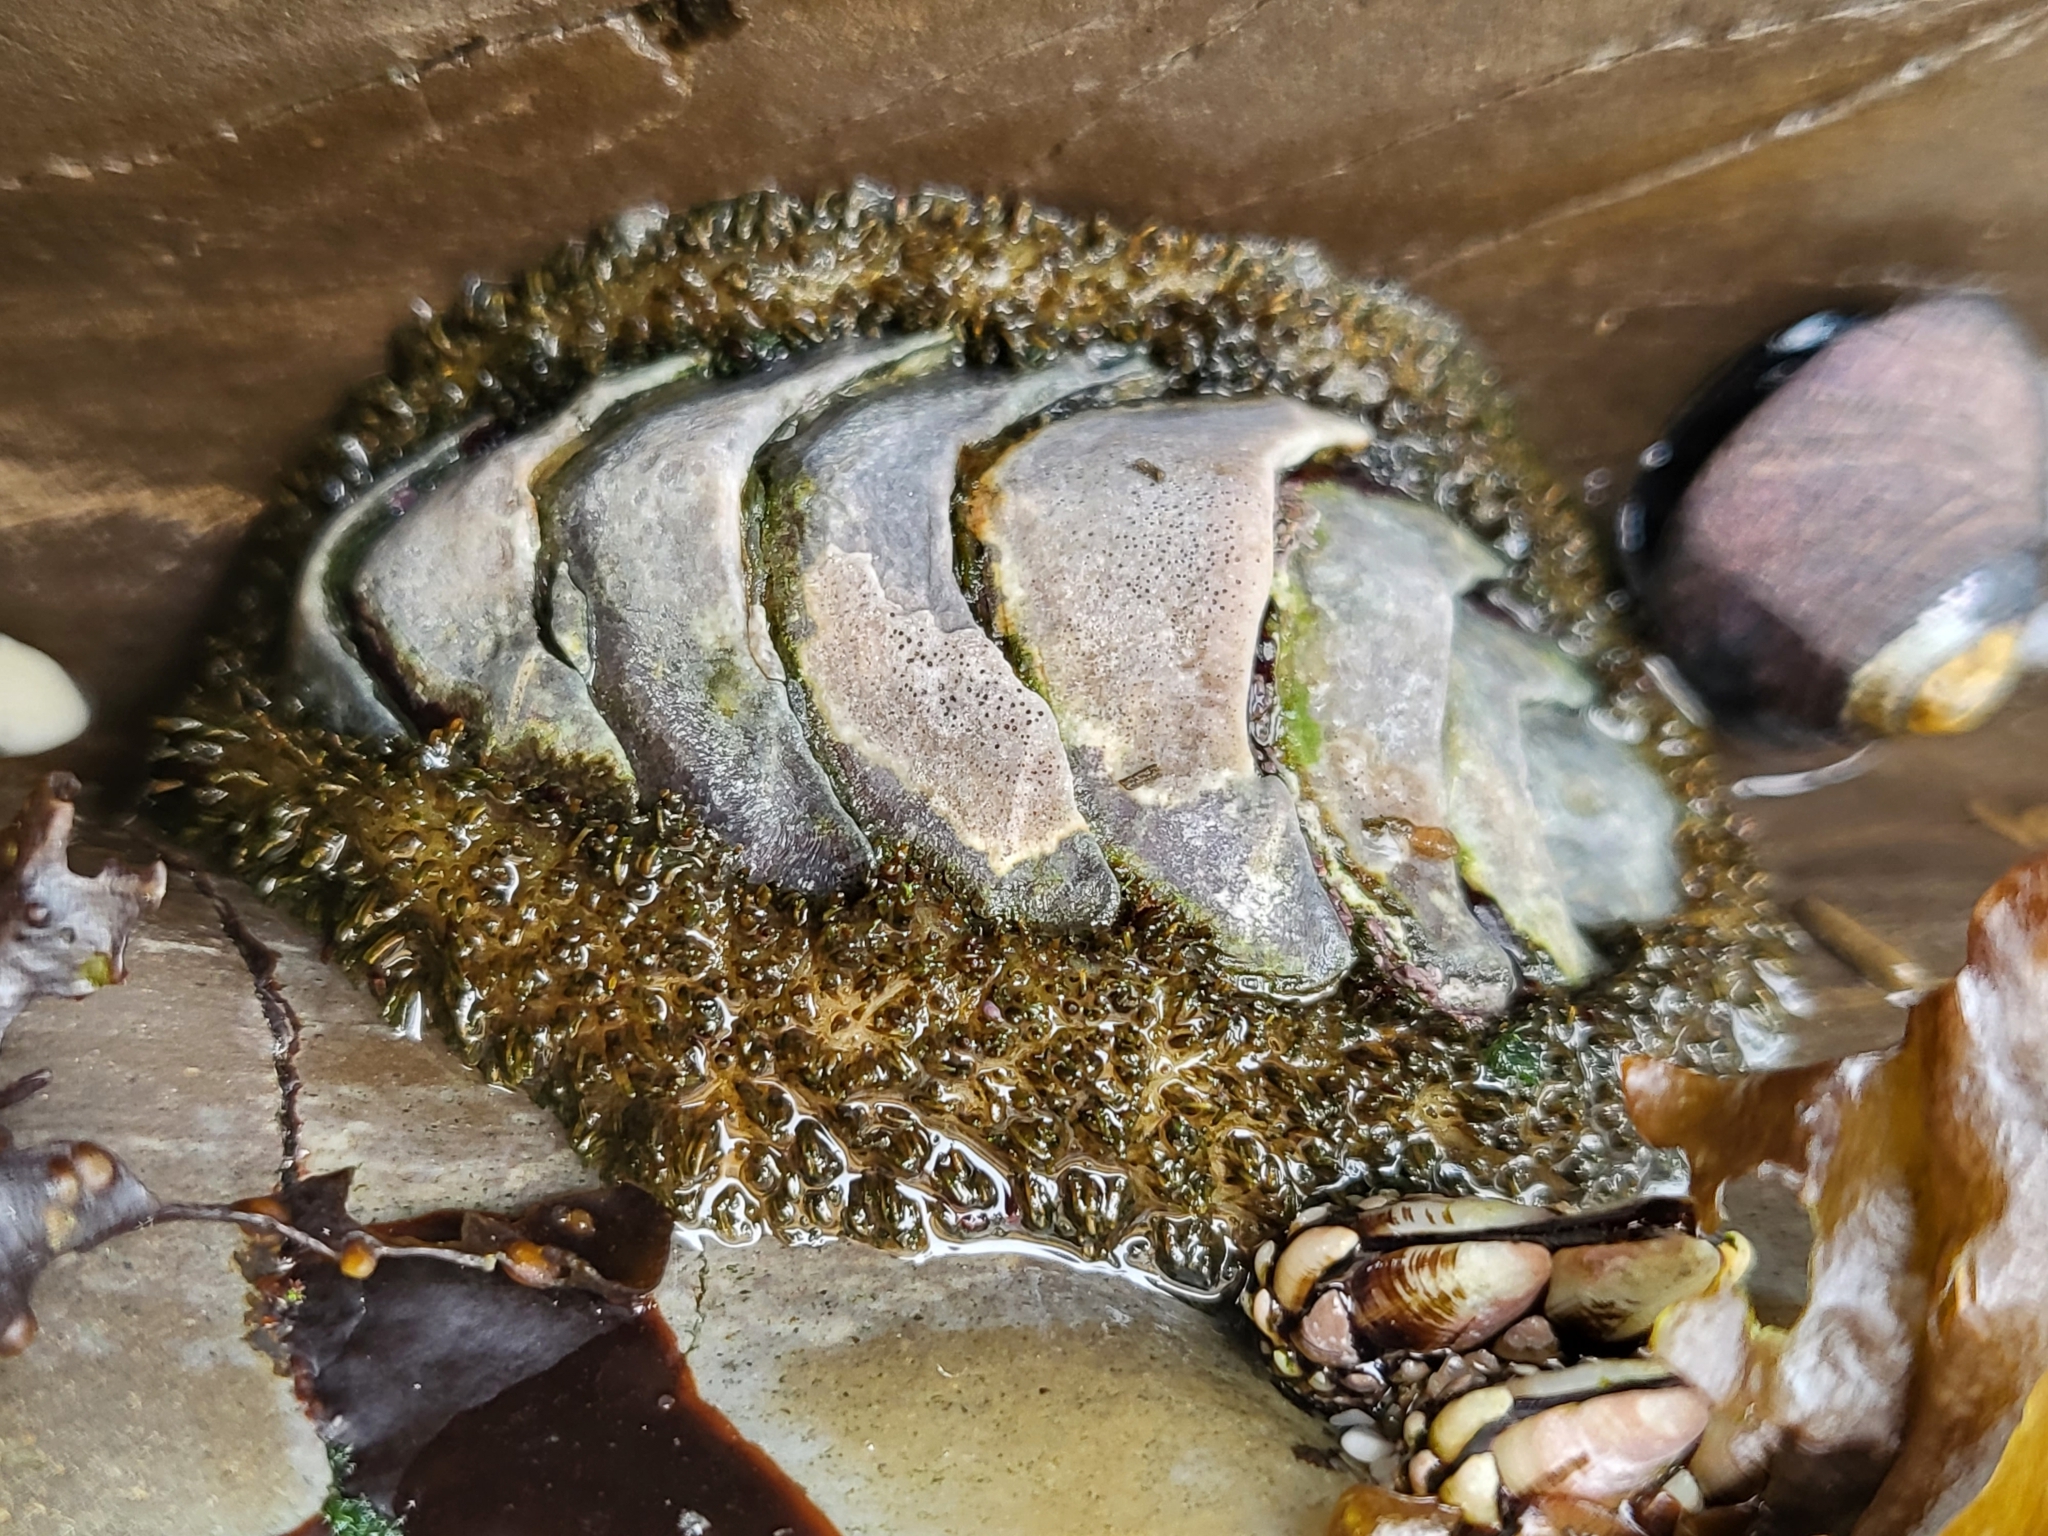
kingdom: Animalia
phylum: Mollusca
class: Polyplacophora
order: Chitonida
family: Mopaliidae
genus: Mopalia
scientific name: Mopalia muscosa
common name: Mossy chiton
